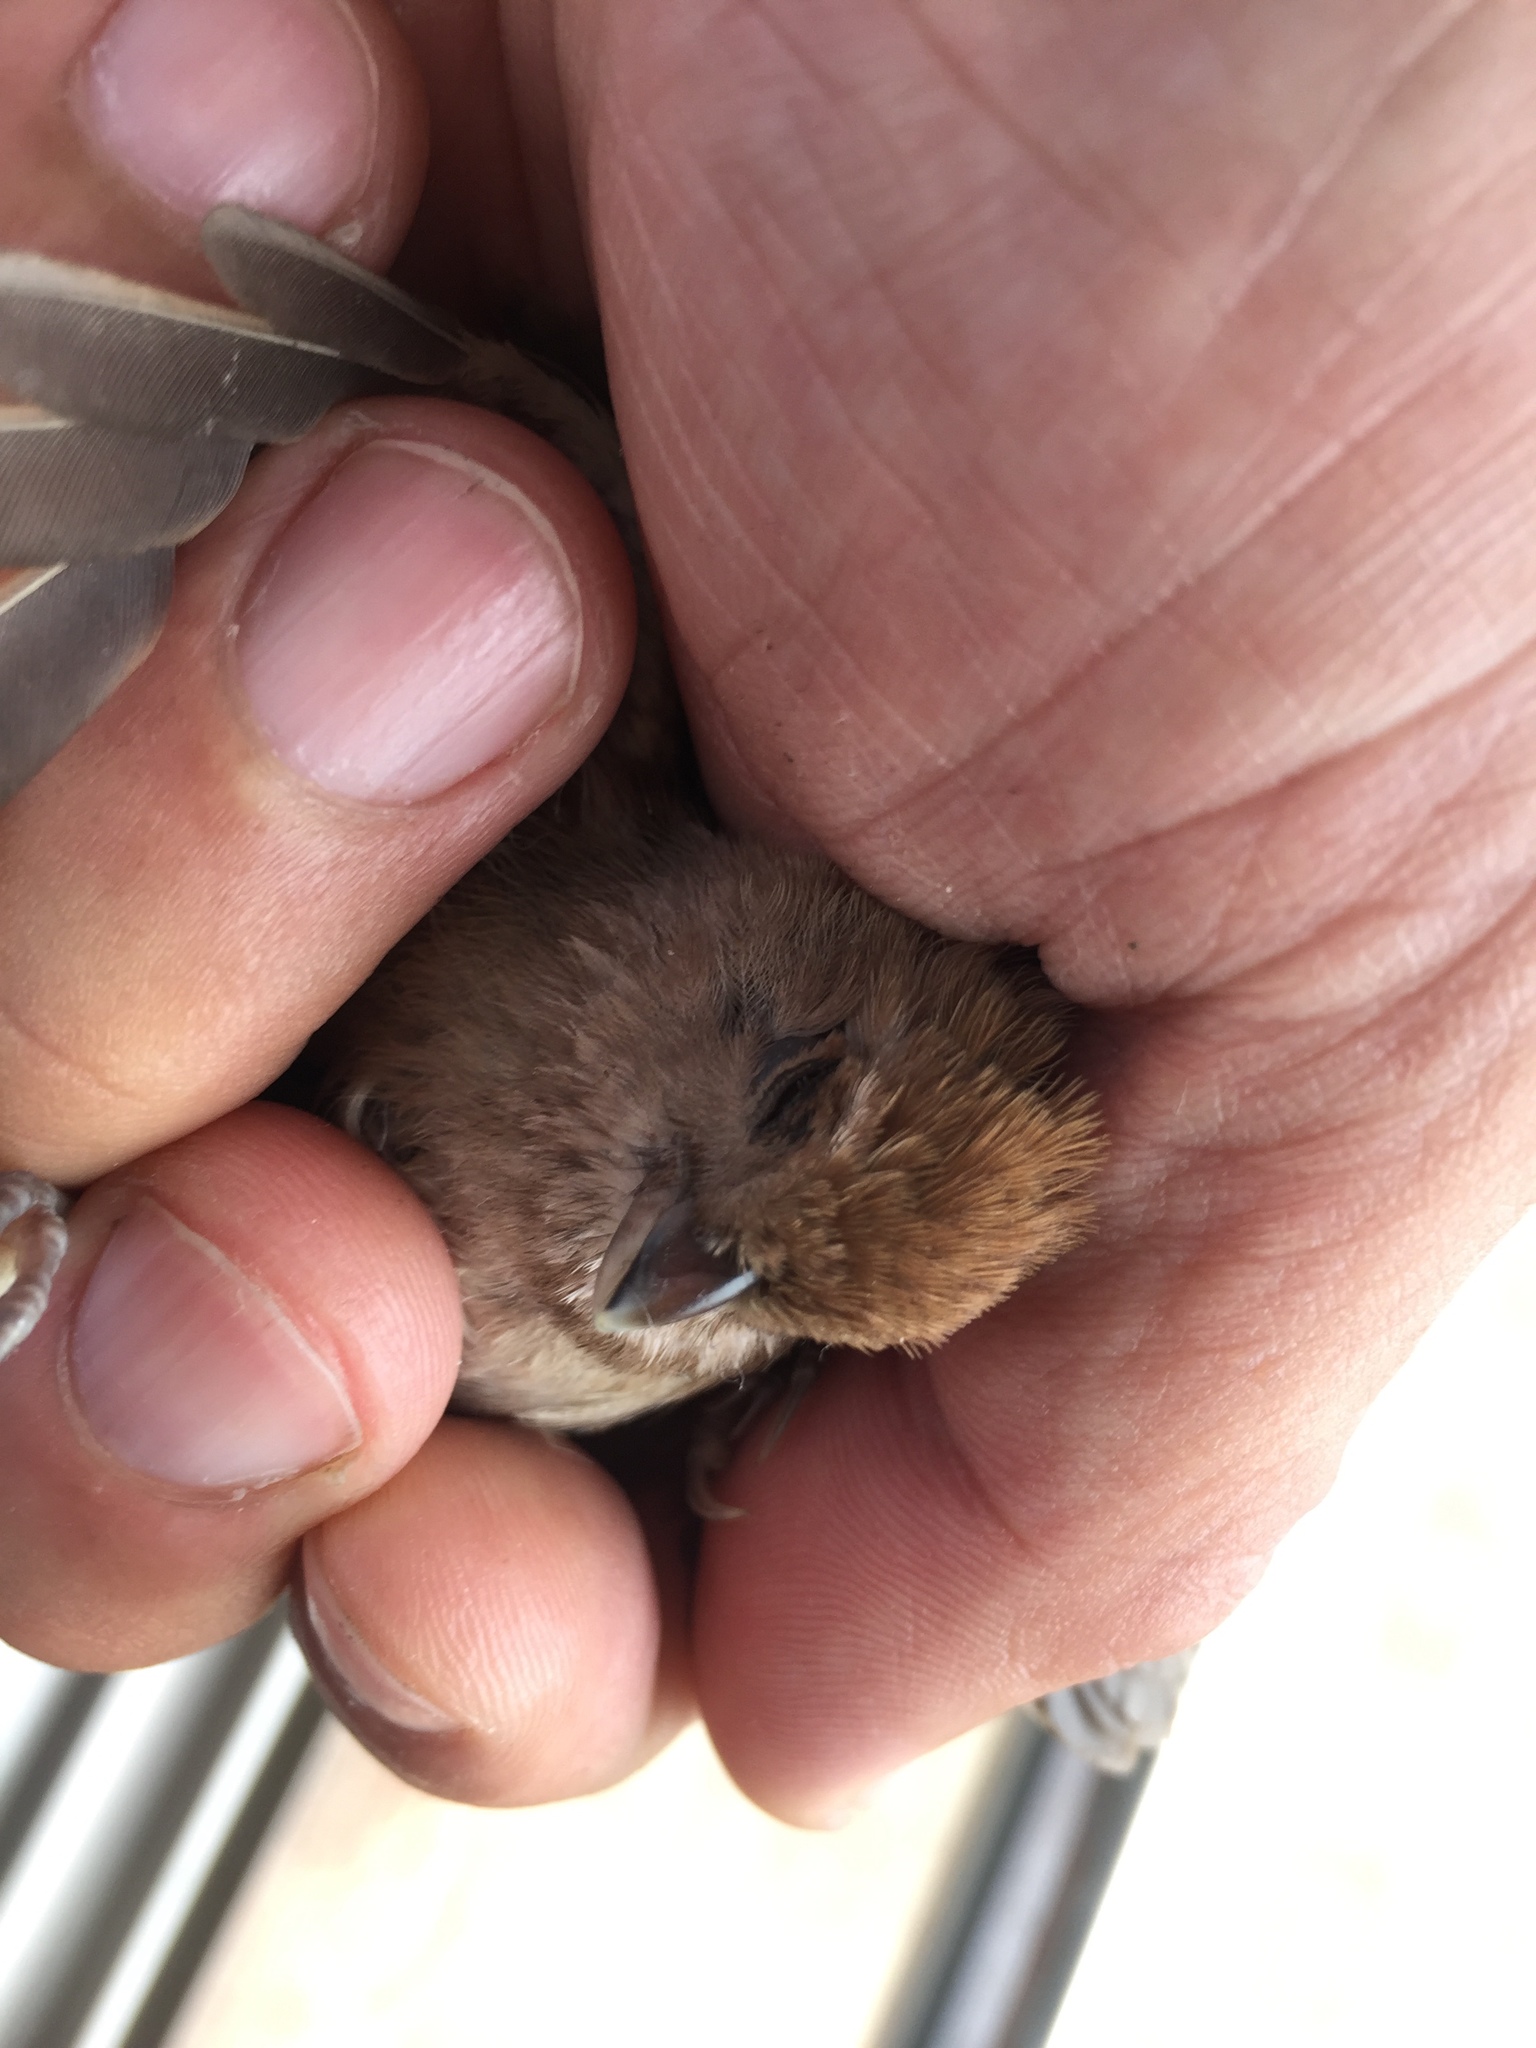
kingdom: Animalia
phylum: Chordata
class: Aves
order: Passeriformes
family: Sylviidae
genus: Sinosuthora
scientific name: Sinosuthora webbiana
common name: Vinous-throated parrotbill
